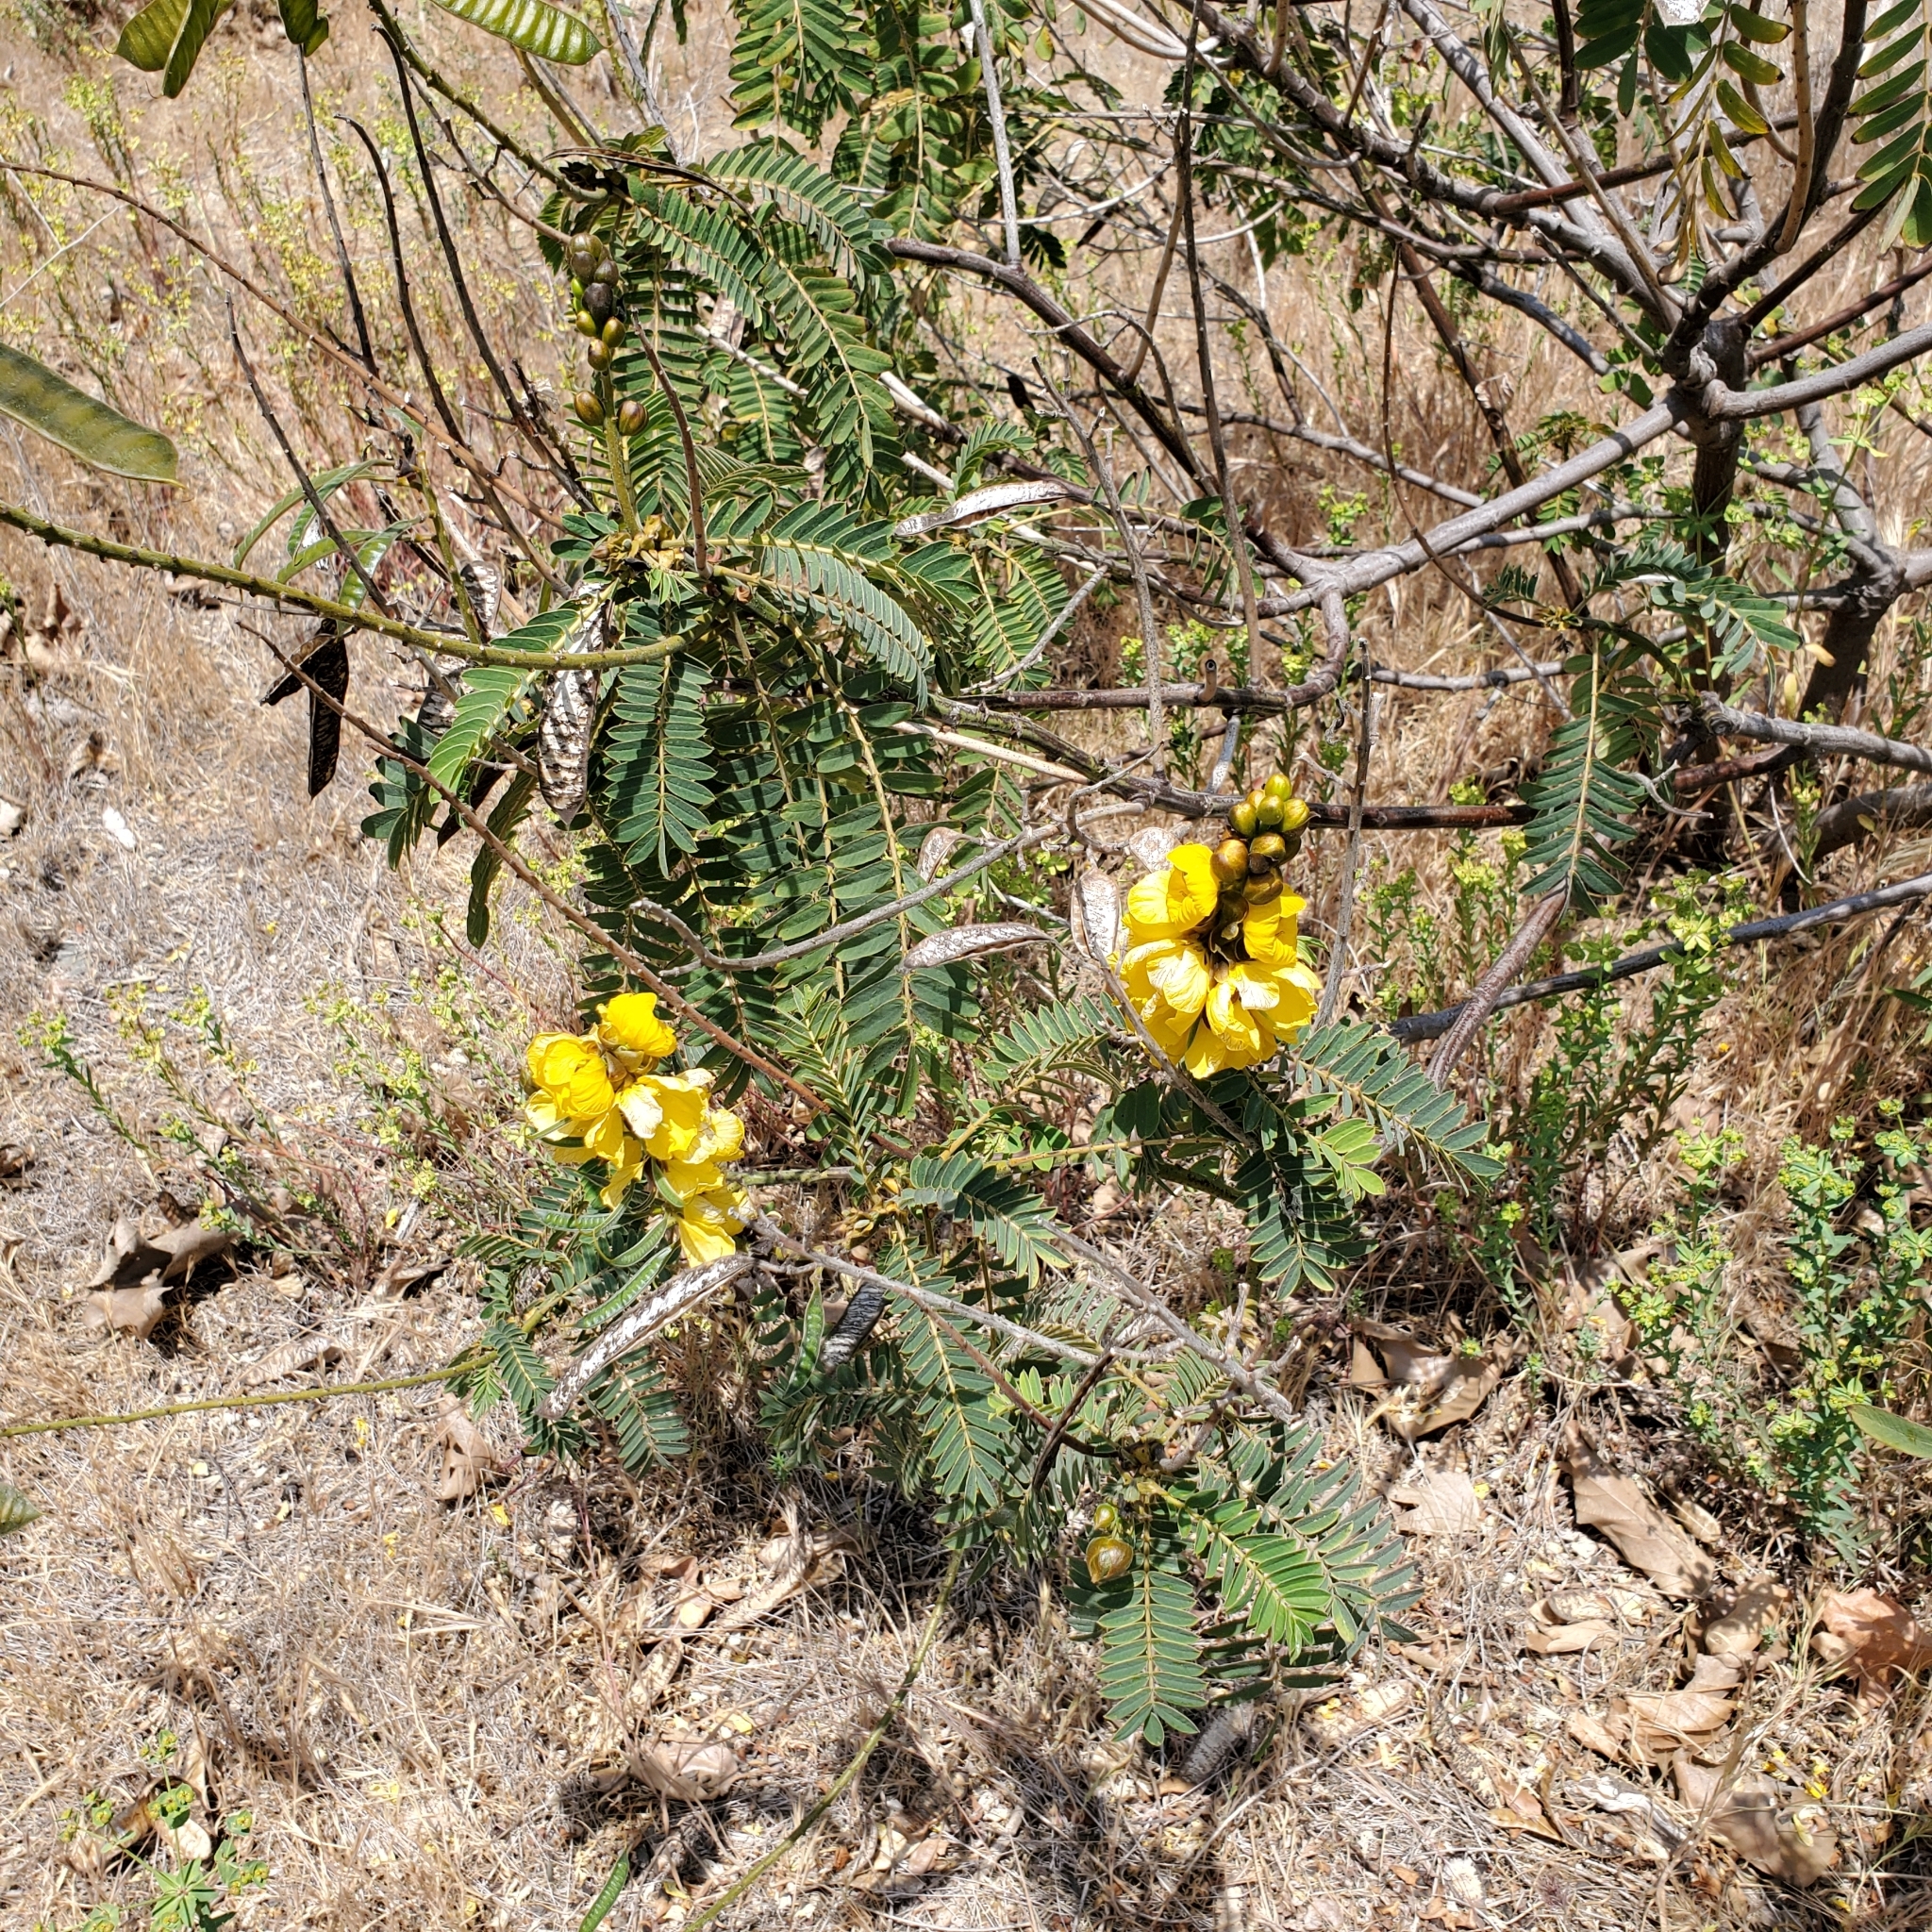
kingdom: Plantae
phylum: Tracheophyta
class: Magnoliopsida
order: Fabales
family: Fabaceae
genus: Senna
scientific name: Senna didymobotrya
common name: African senna
